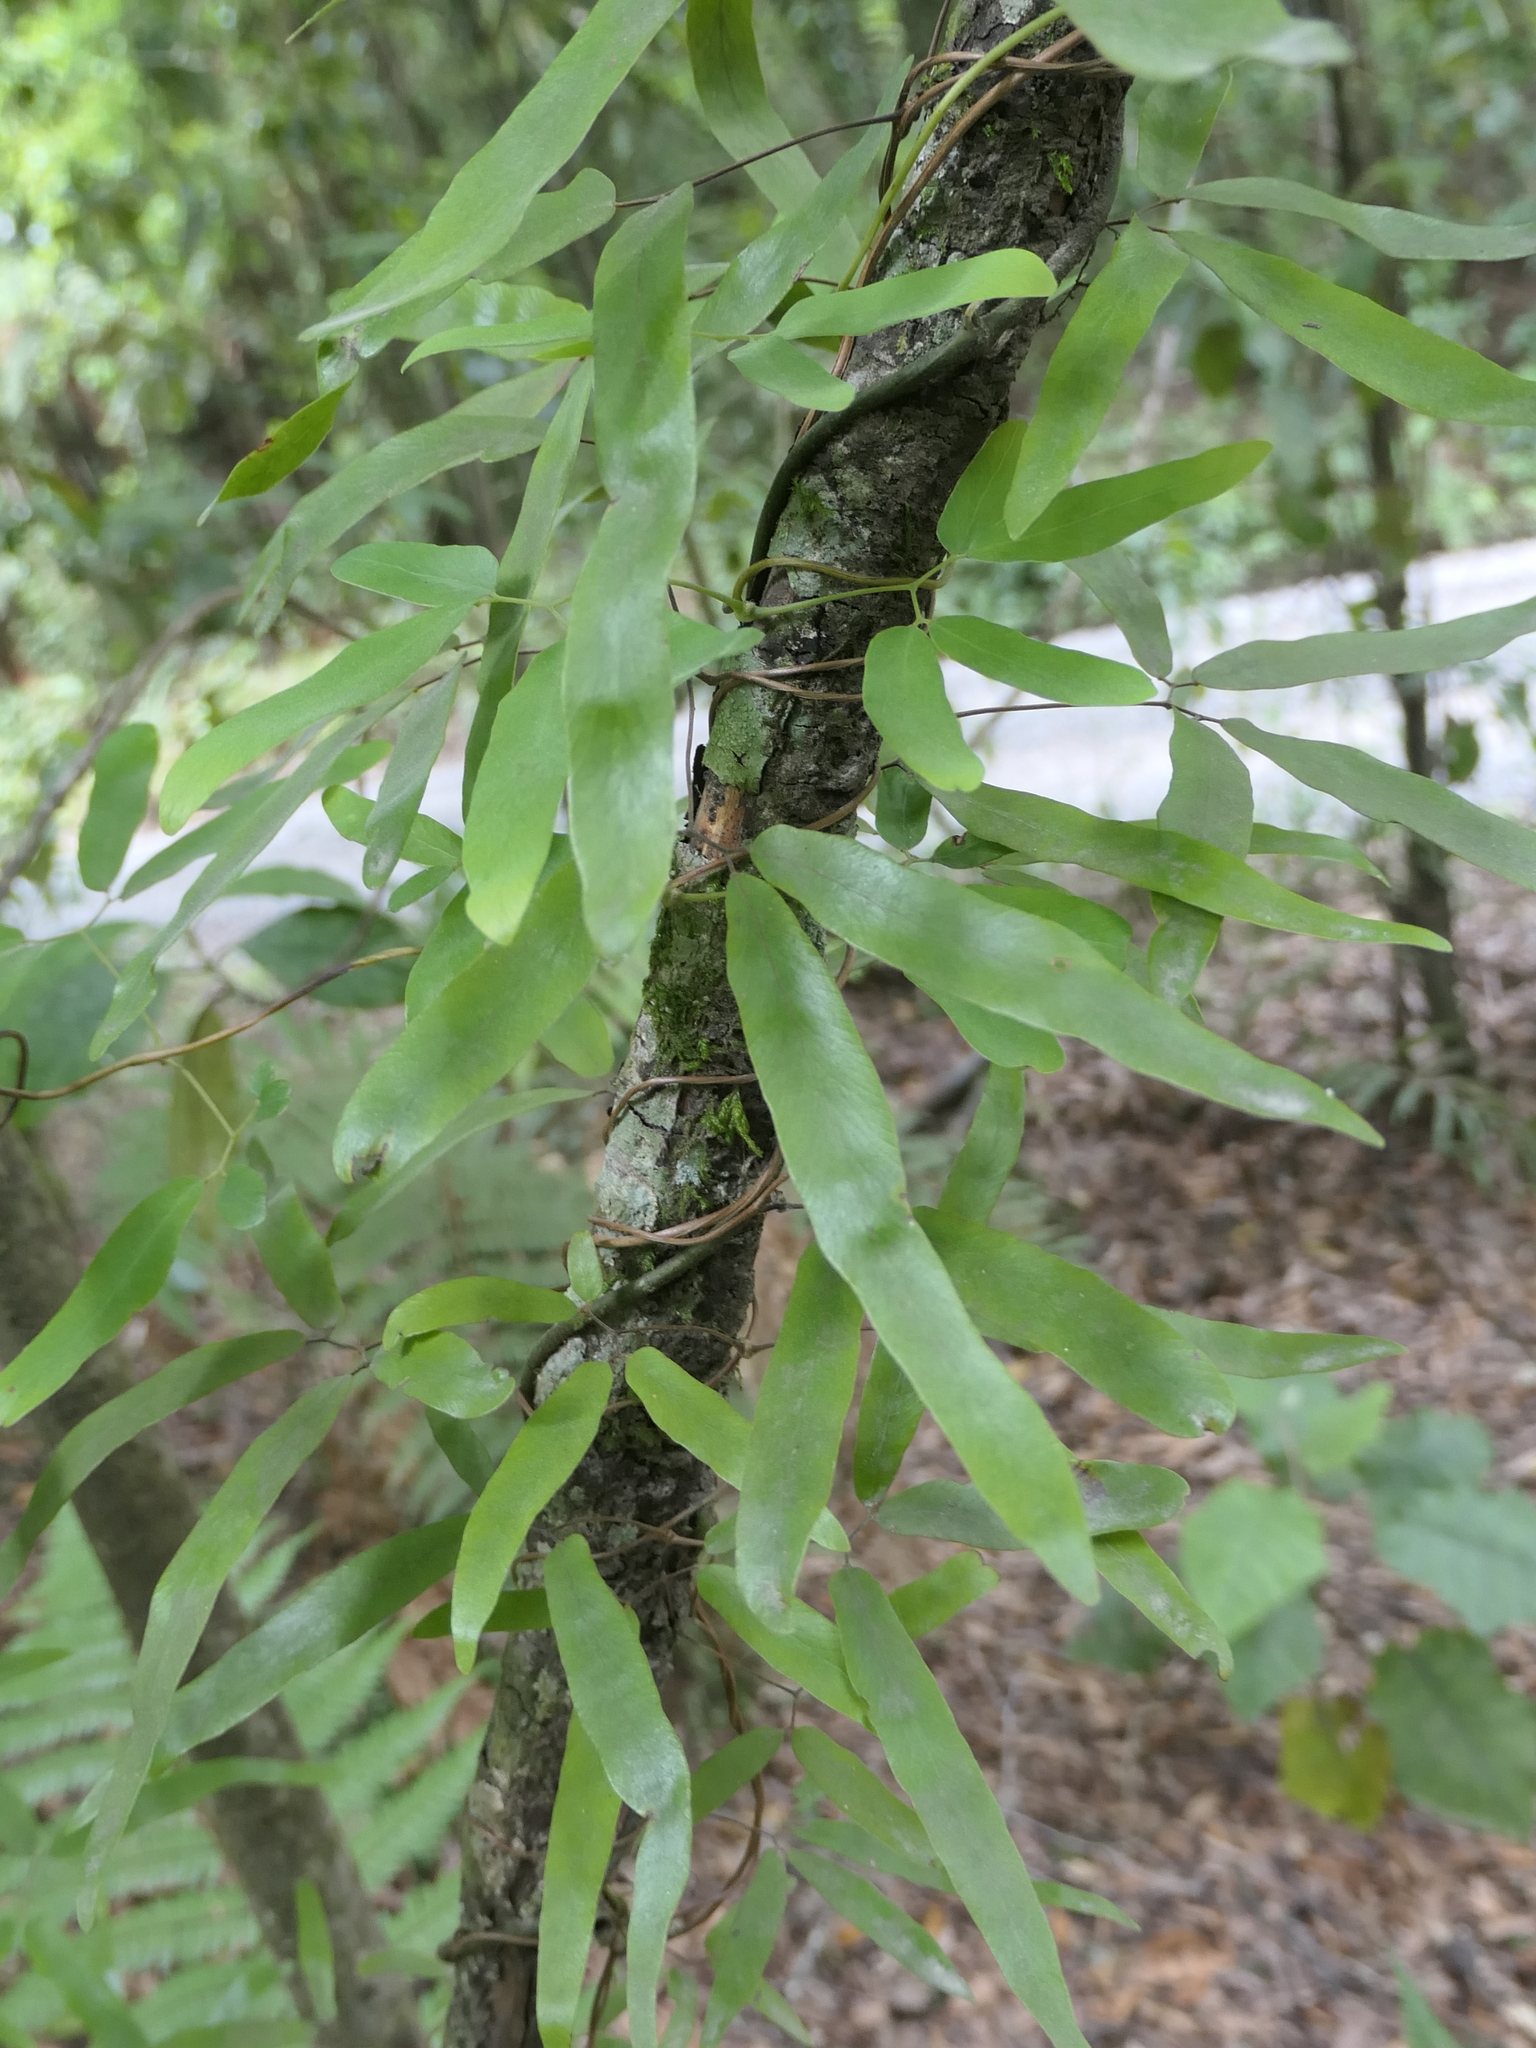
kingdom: Plantae
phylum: Tracheophyta
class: Polypodiopsida
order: Schizaeales
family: Lygodiaceae
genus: Lygodium
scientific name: Lygodium articulatum
